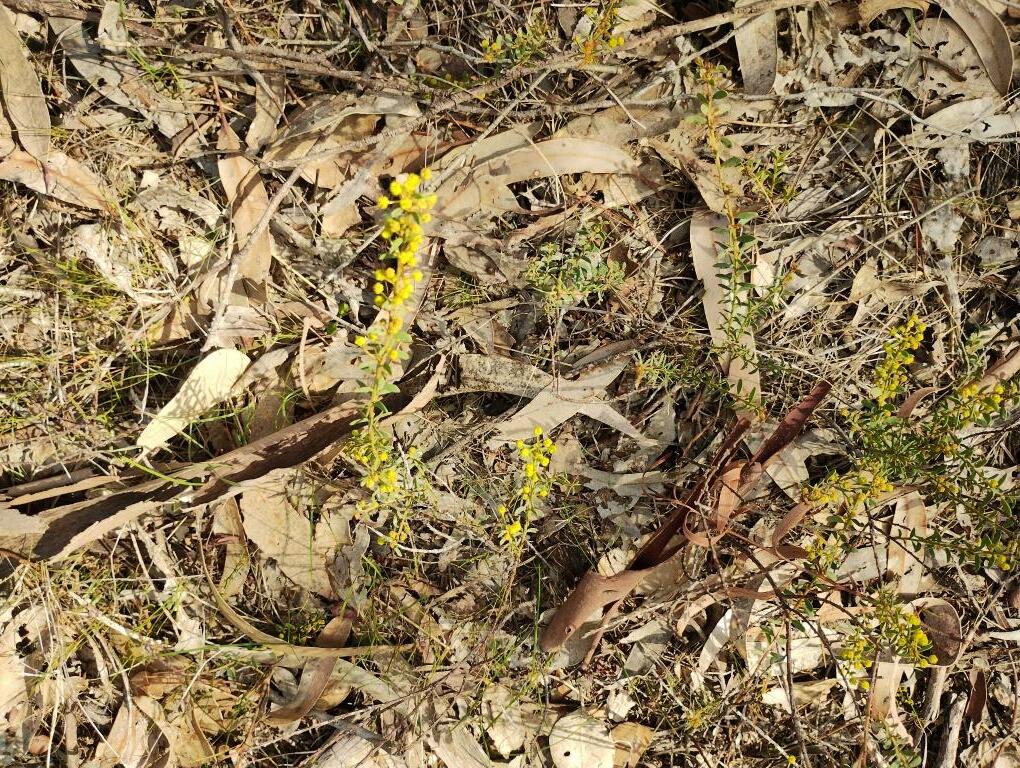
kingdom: Plantae
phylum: Tracheophyta
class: Magnoliopsida
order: Fabales
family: Fabaceae
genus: Acacia
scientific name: Acacia acinacea
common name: Gold-dust acacia
